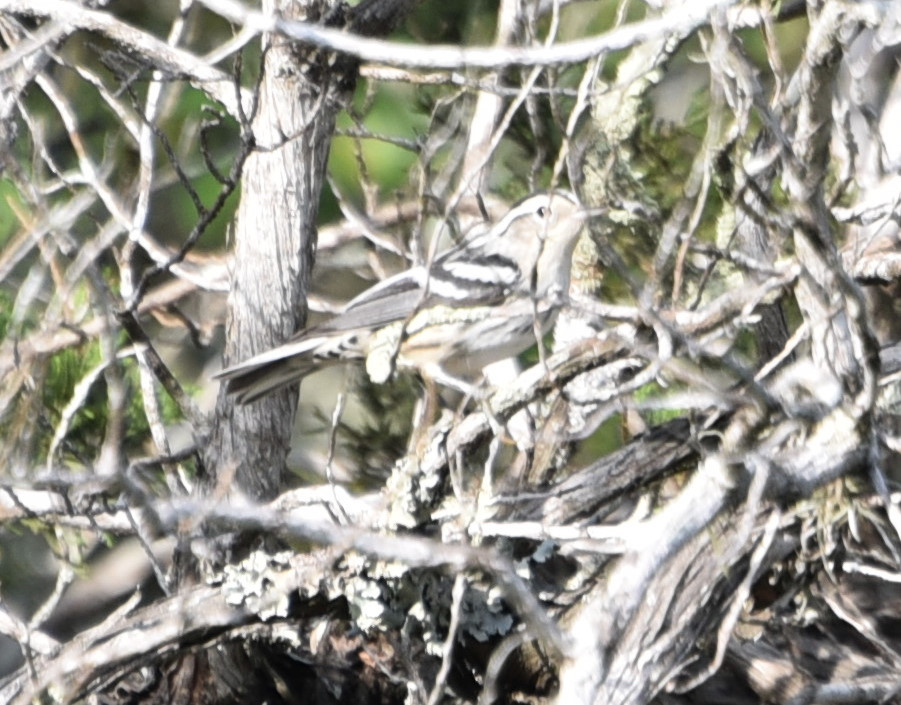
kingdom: Animalia
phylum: Chordata
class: Aves
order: Passeriformes
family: Parulidae
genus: Mniotilta
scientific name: Mniotilta varia
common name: Black-and-white warbler
